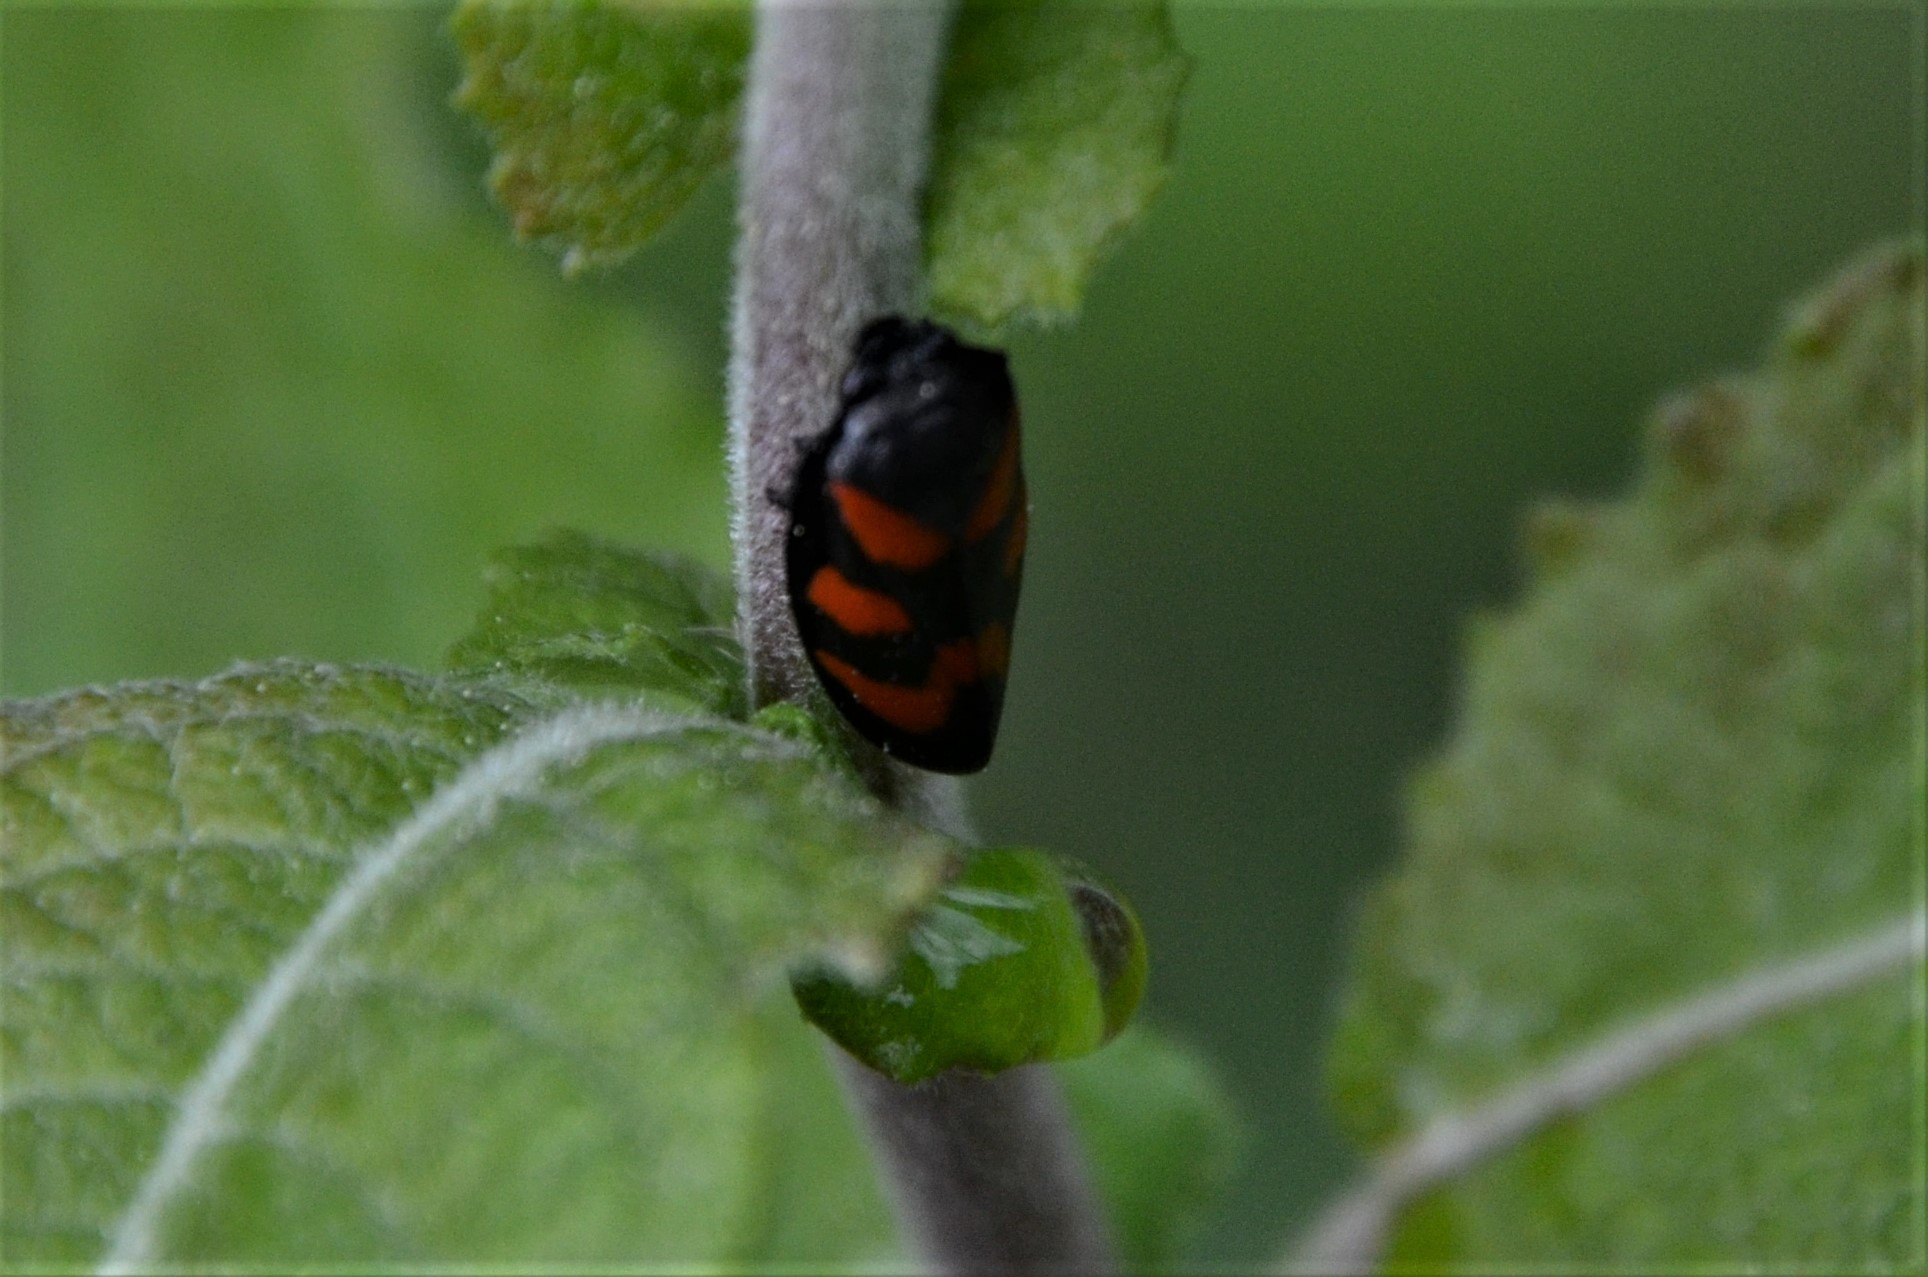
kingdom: Animalia
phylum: Arthropoda
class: Insecta
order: Hemiptera
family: Cercopidae
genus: Cercopis
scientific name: Cercopis vulnerata
